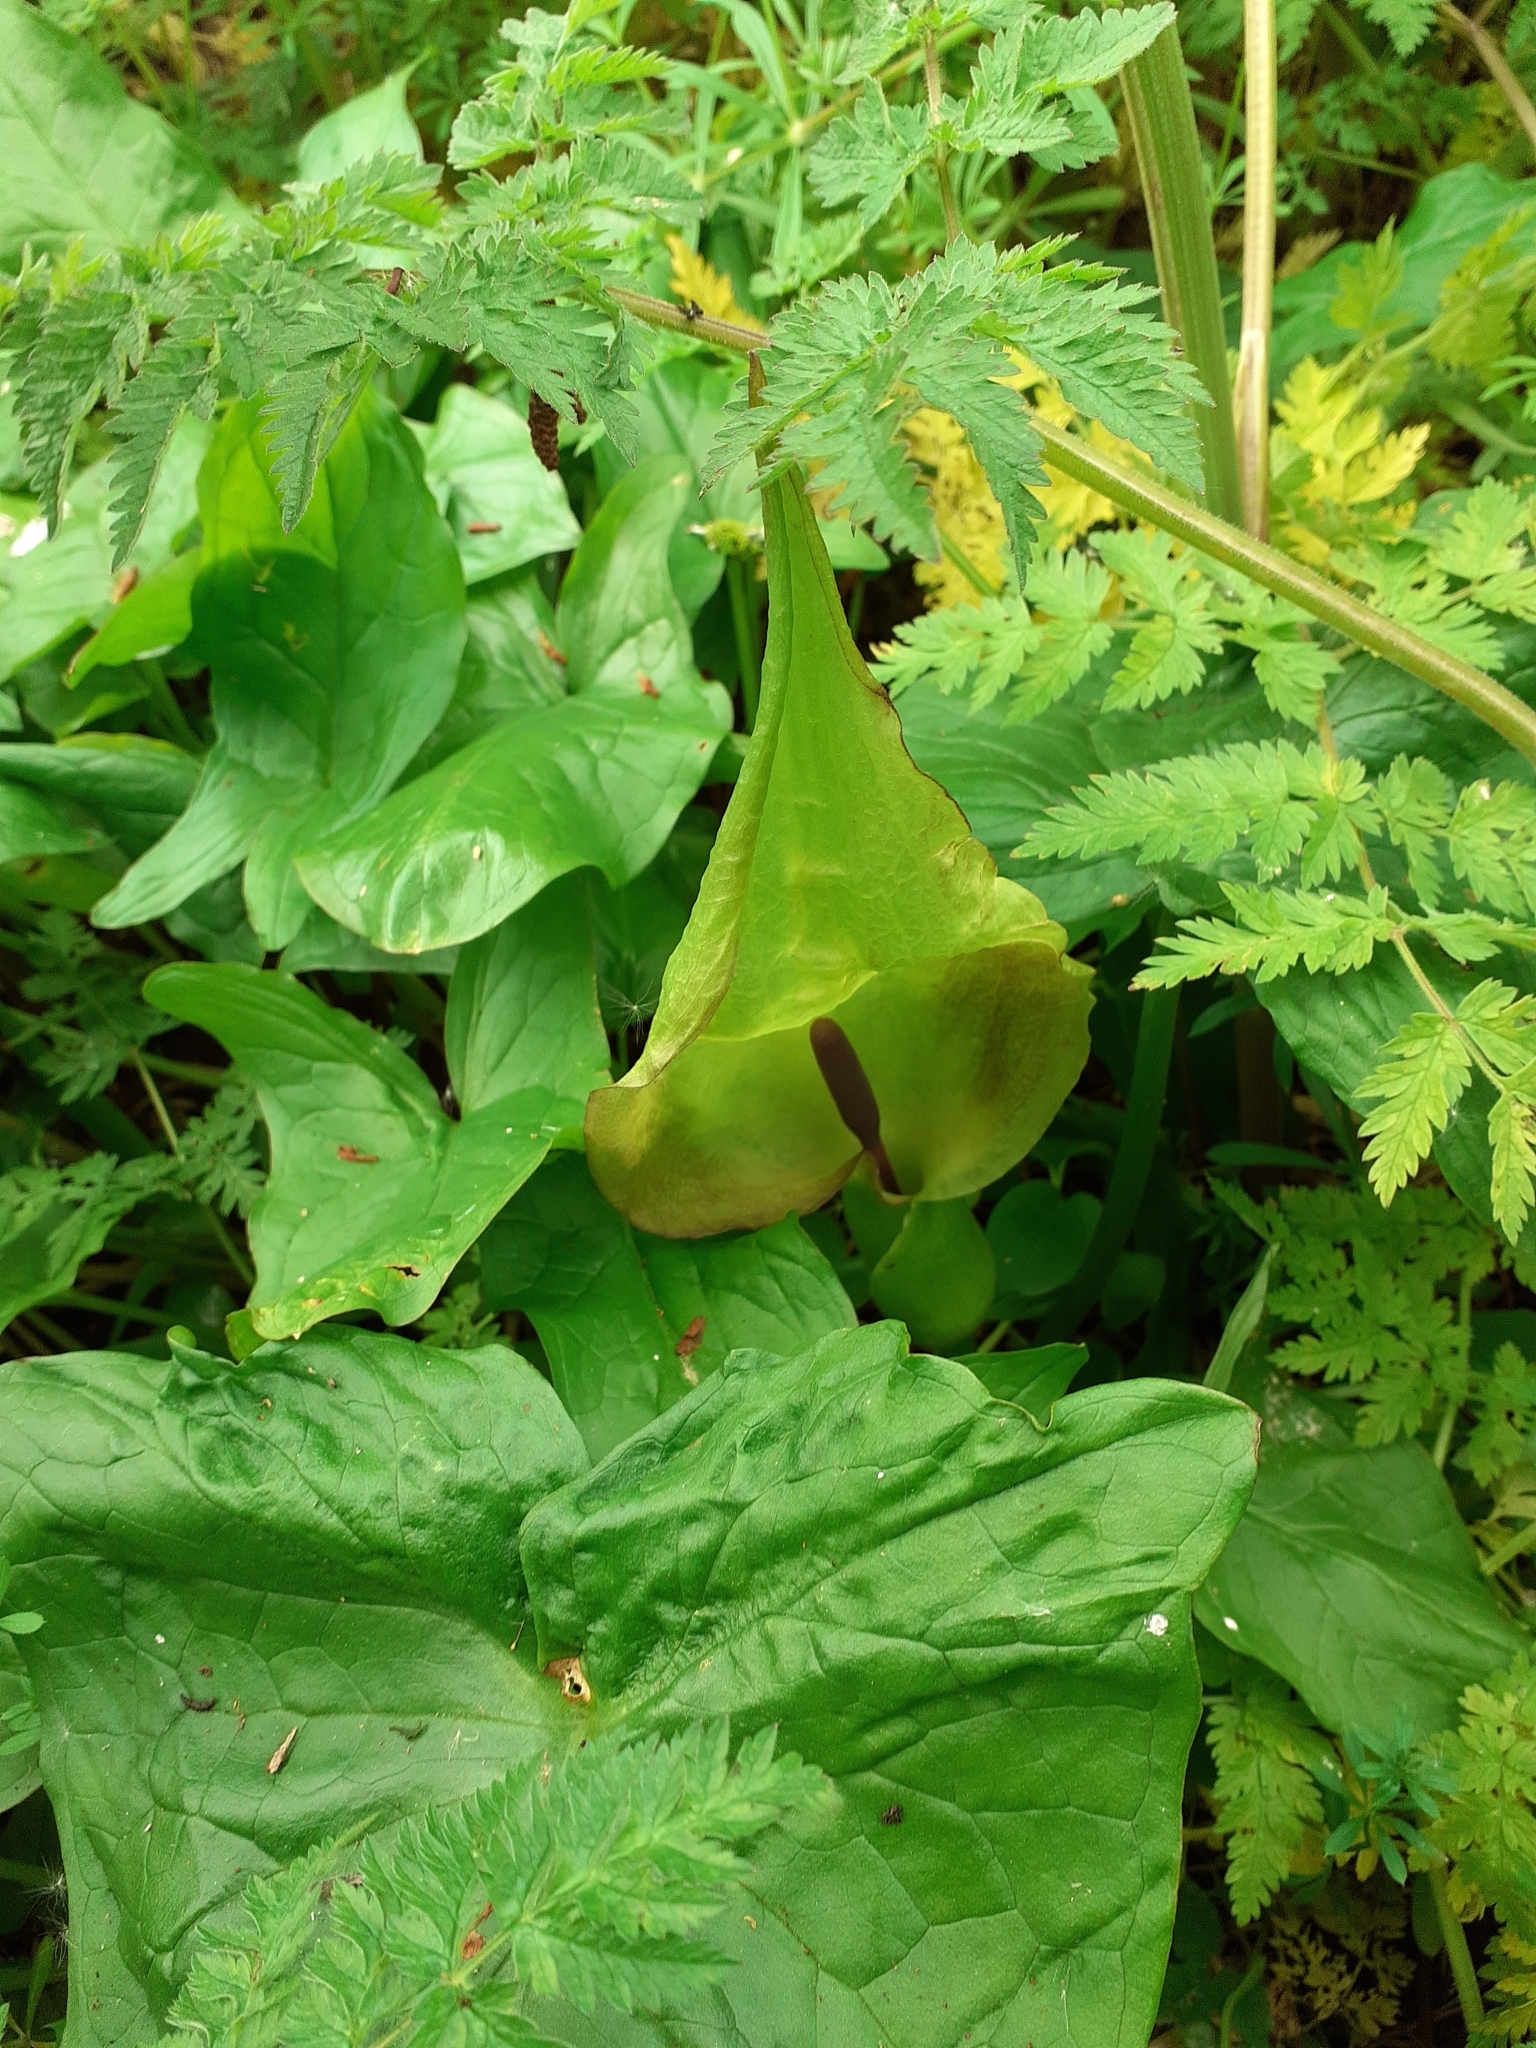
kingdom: Plantae
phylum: Tracheophyta
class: Liliopsida
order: Alismatales
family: Araceae
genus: Arum
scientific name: Arum maculatum
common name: Lords-and-ladies
